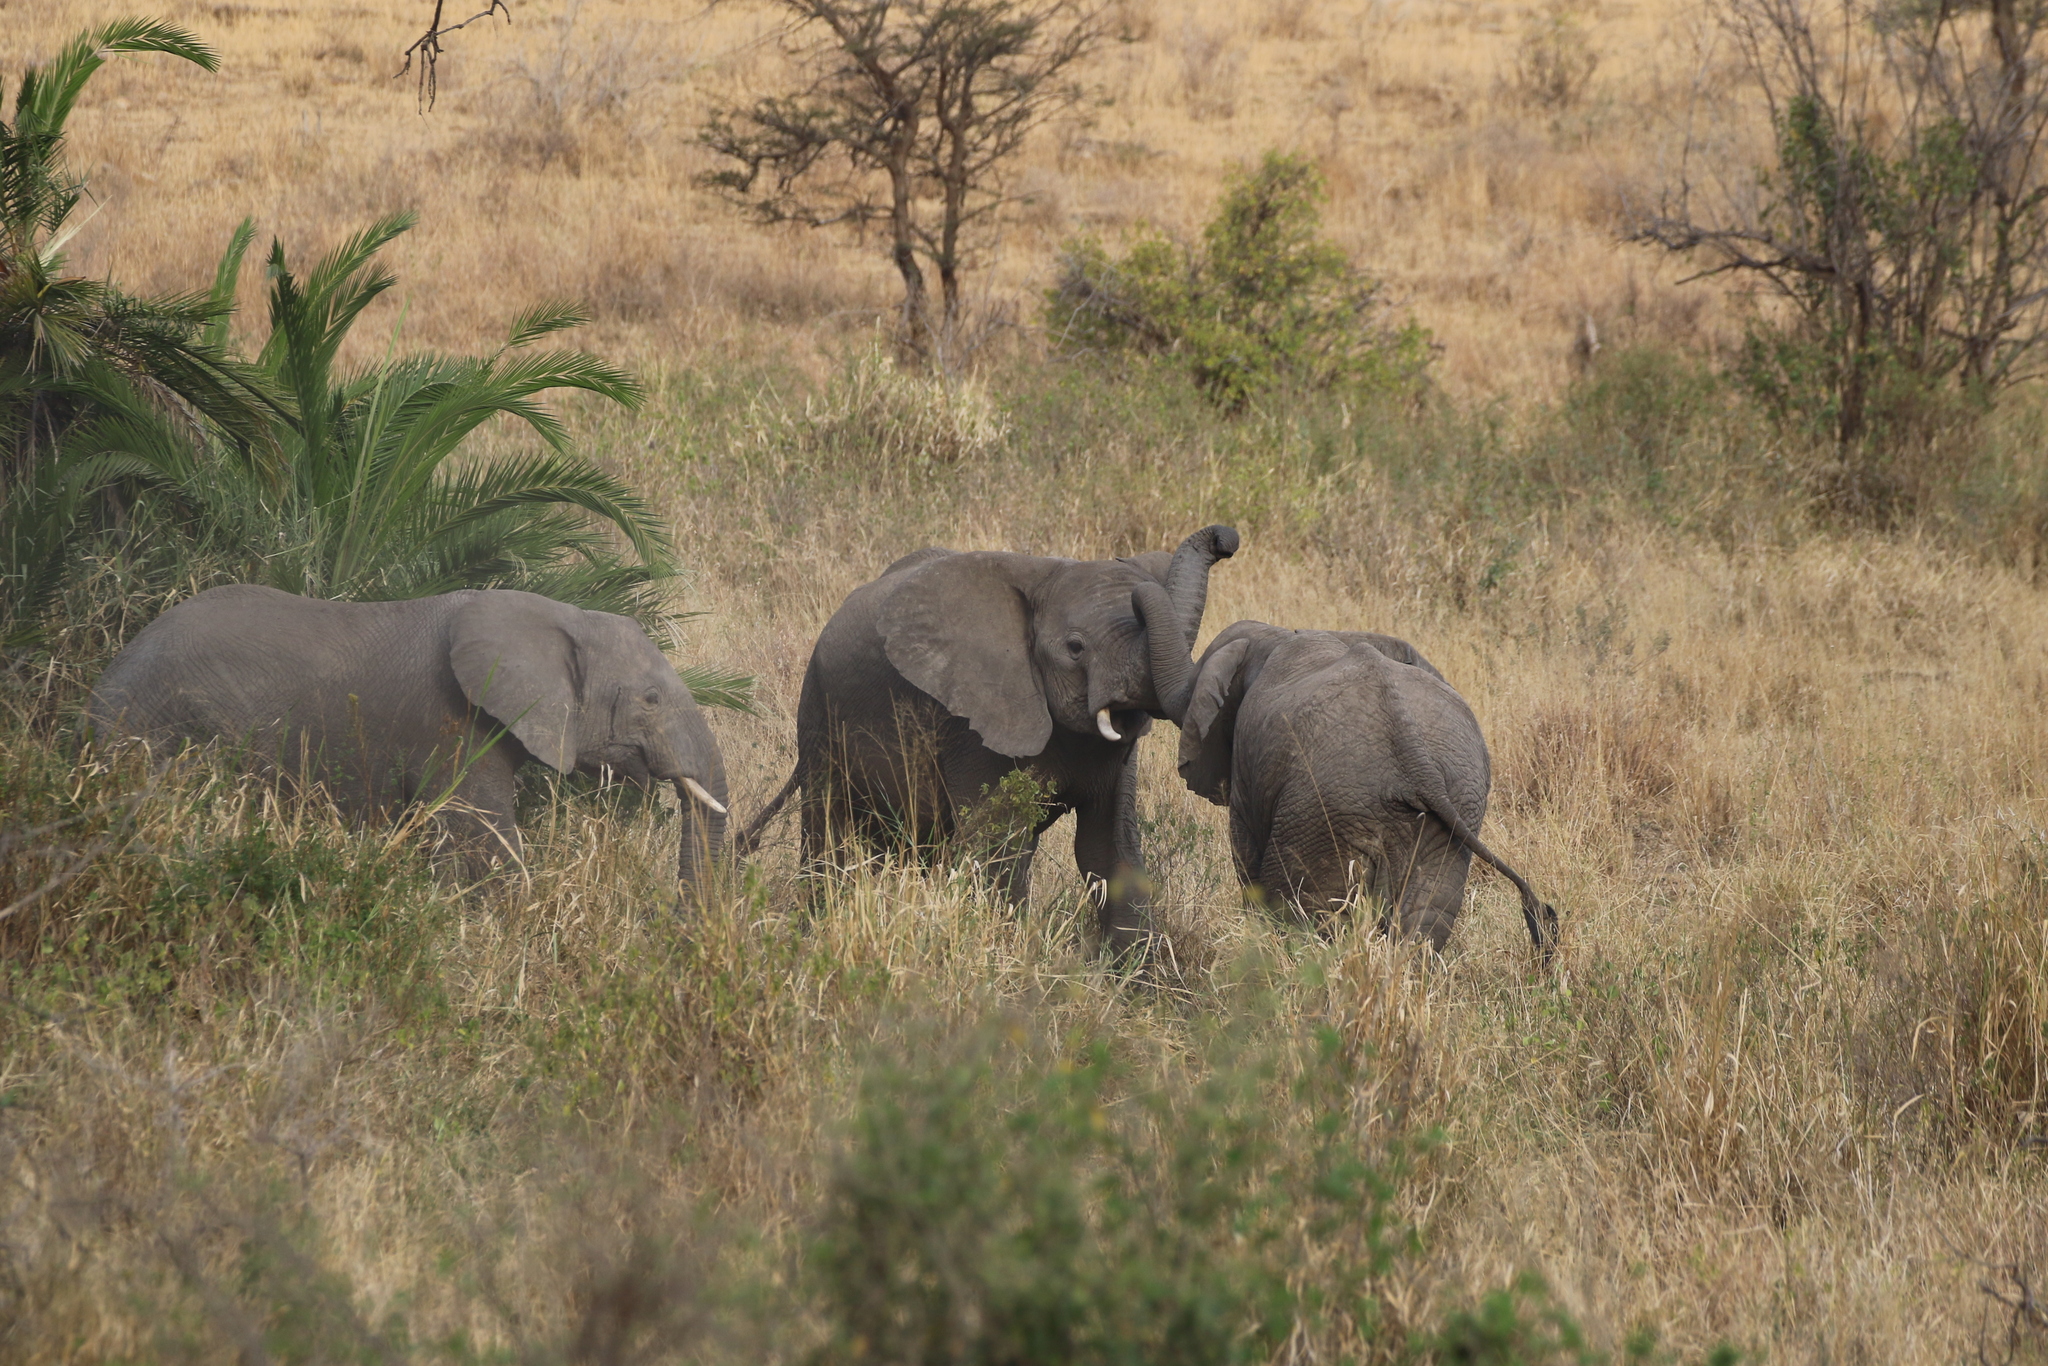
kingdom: Animalia
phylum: Chordata
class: Mammalia
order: Proboscidea
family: Elephantidae
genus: Loxodonta
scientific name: Loxodonta africana
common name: African elephant
